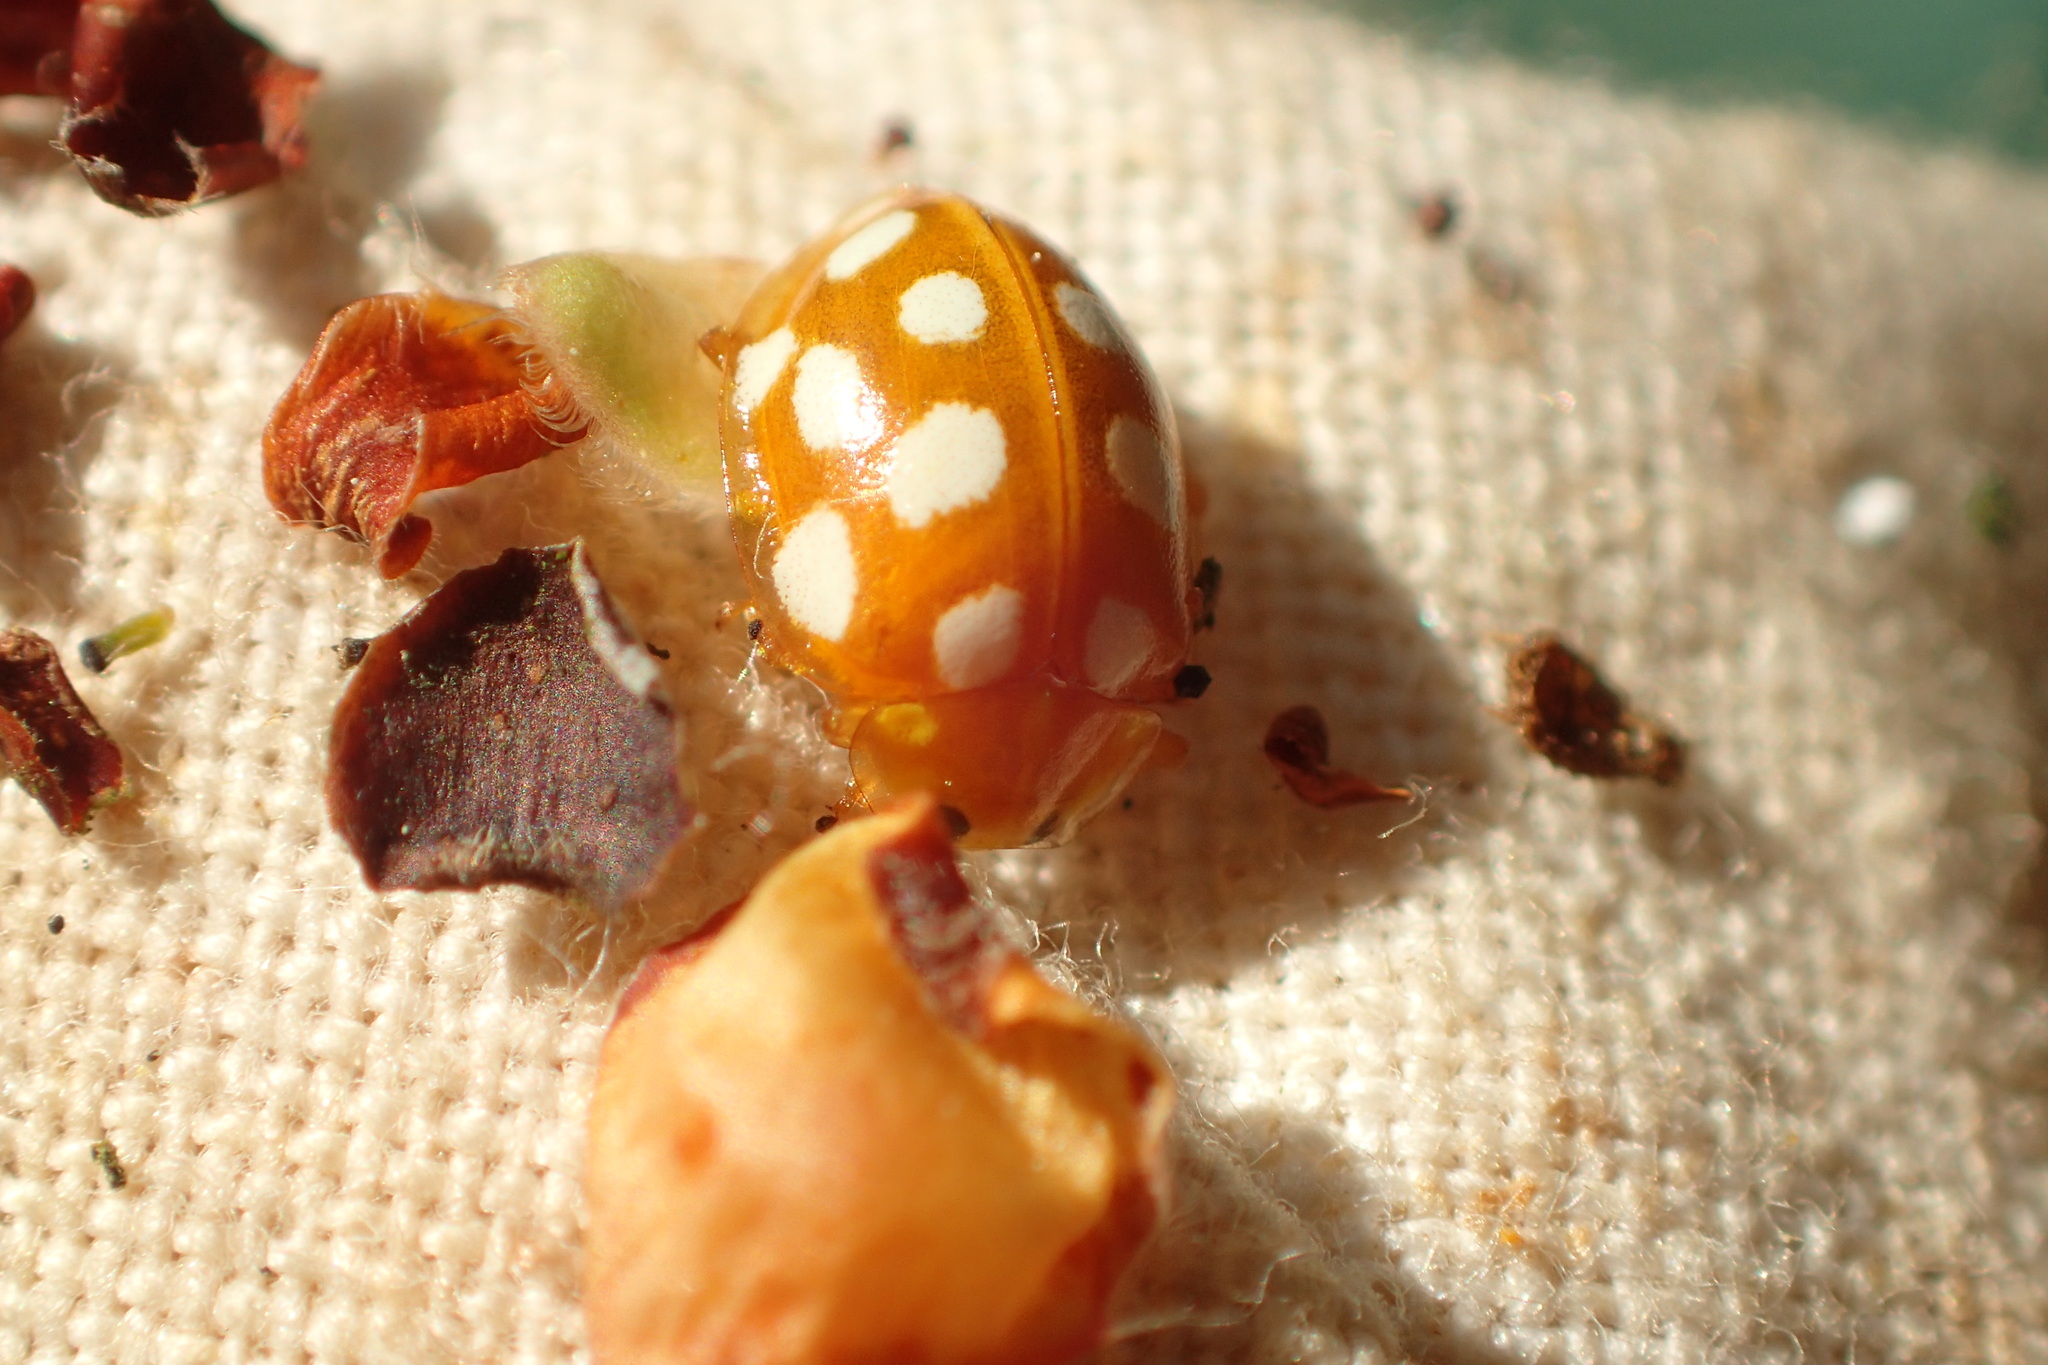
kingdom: Animalia
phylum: Arthropoda
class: Insecta
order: Coleoptera
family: Coccinellidae
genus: Halyzia
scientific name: Halyzia sedecimguttata
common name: Orange ladybird
